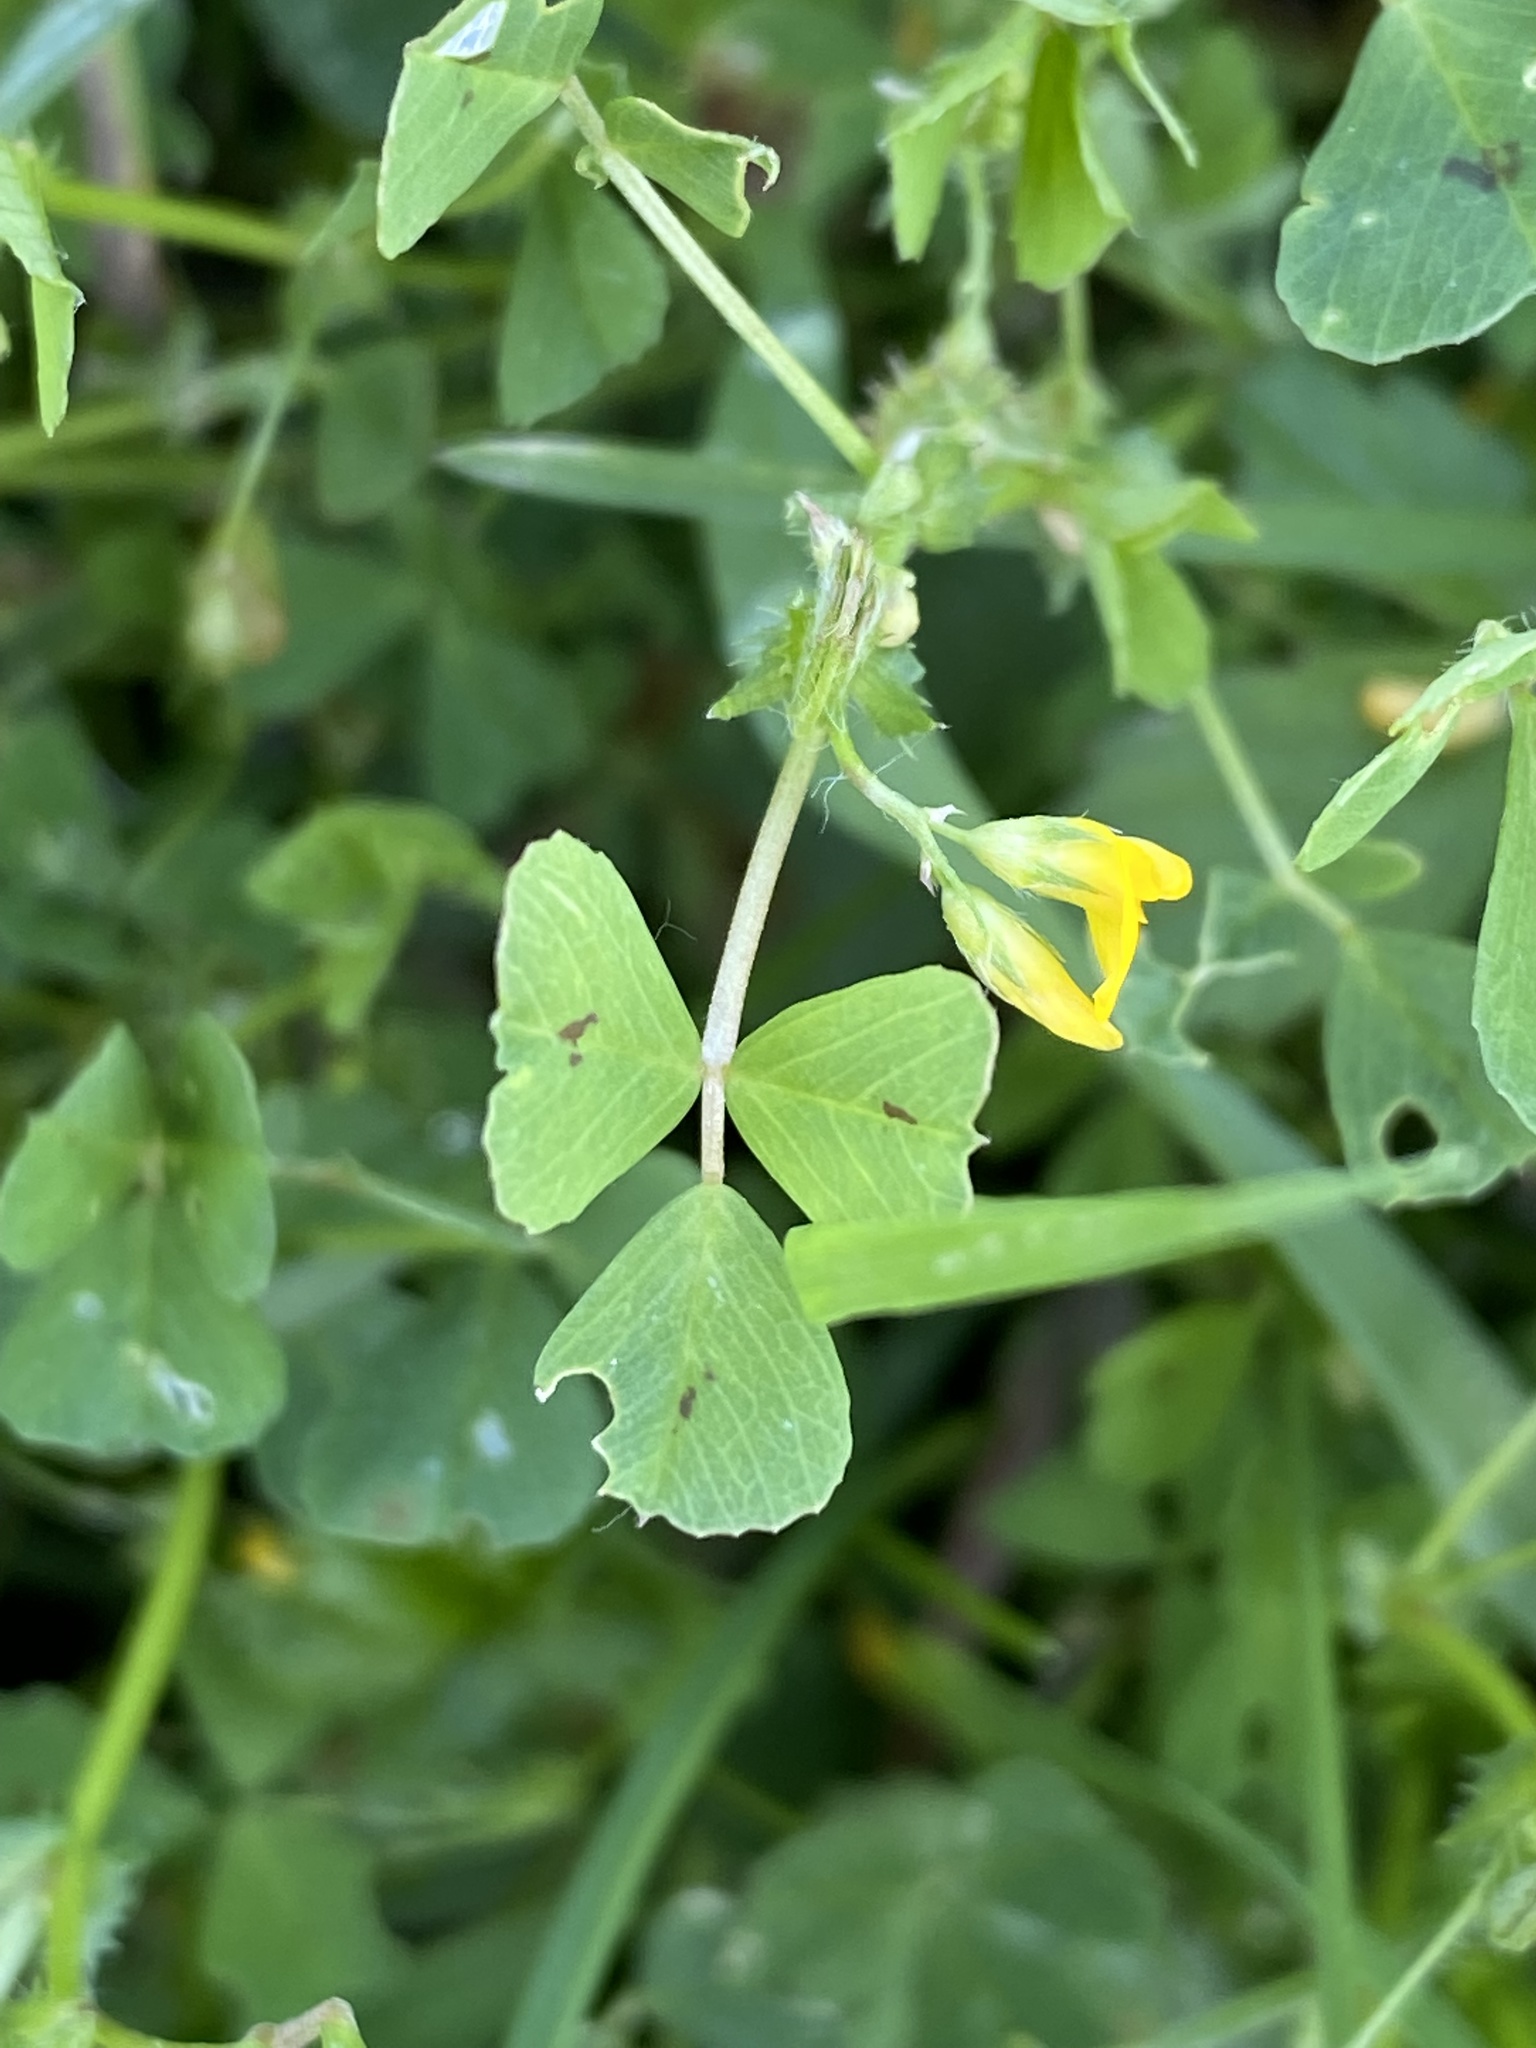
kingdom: Plantae
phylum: Tracheophyta
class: Magnoliopsida
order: Fabales
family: Fabaceae
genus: Medicago
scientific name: Medicago arabica
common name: Spotted medick
